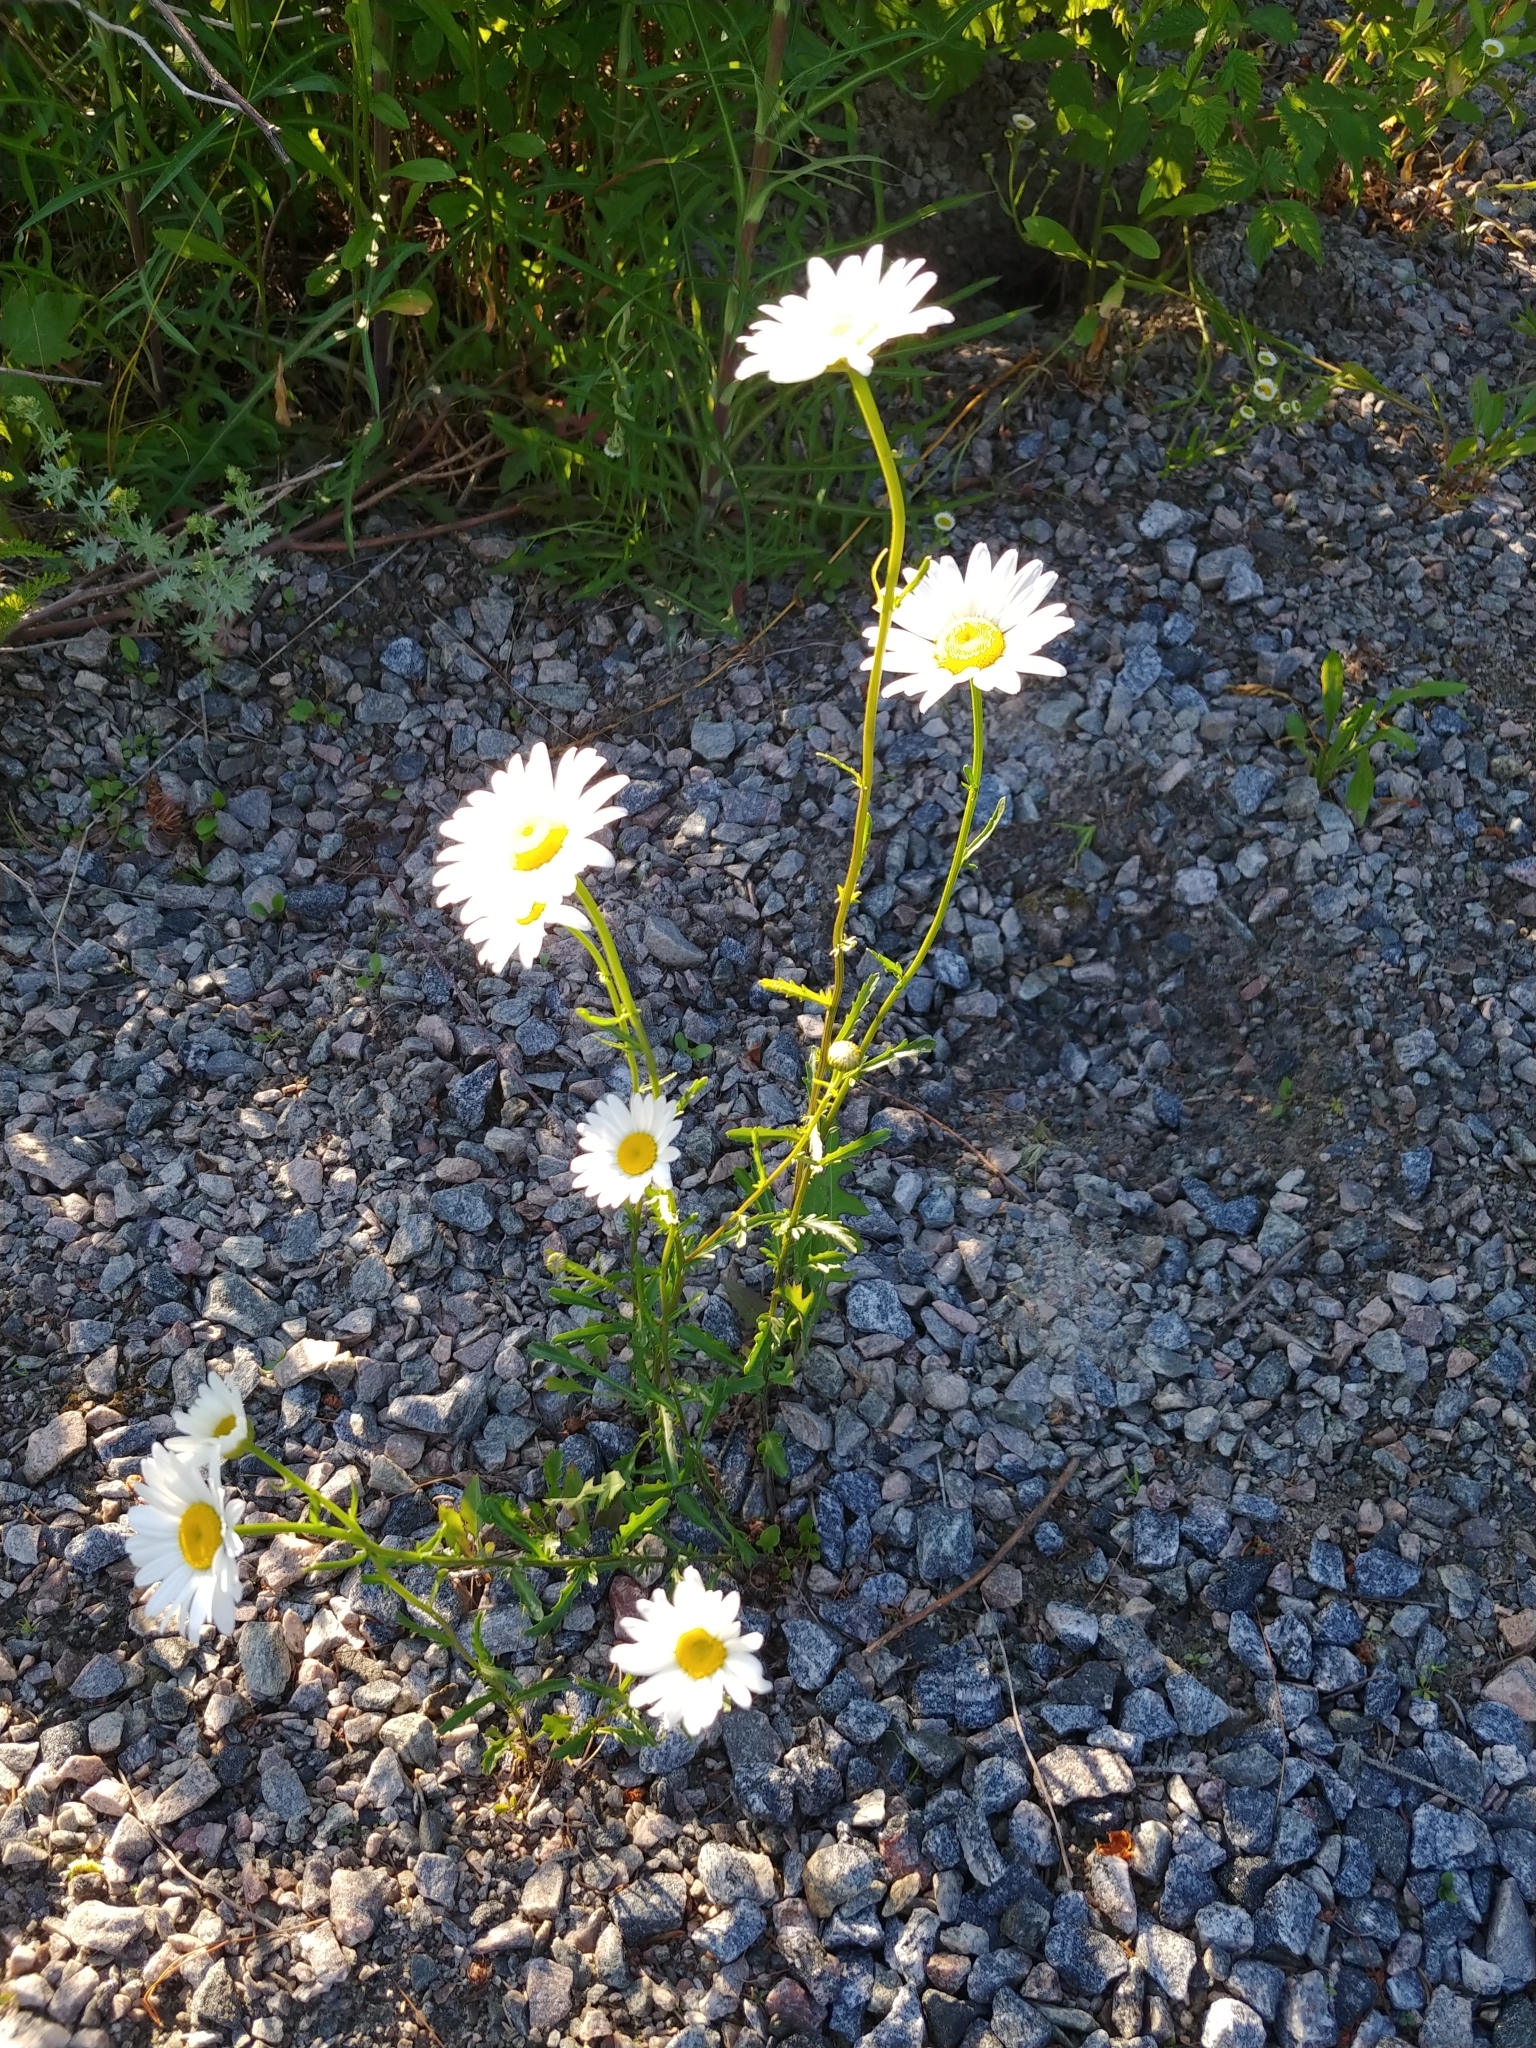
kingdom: Plantae
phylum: Tracheophyta
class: Magnoliopsida
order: Asterales
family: Asteraceae
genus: Leucanthemum
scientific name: Leucanthemum vulgare
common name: Oxeye daisy
